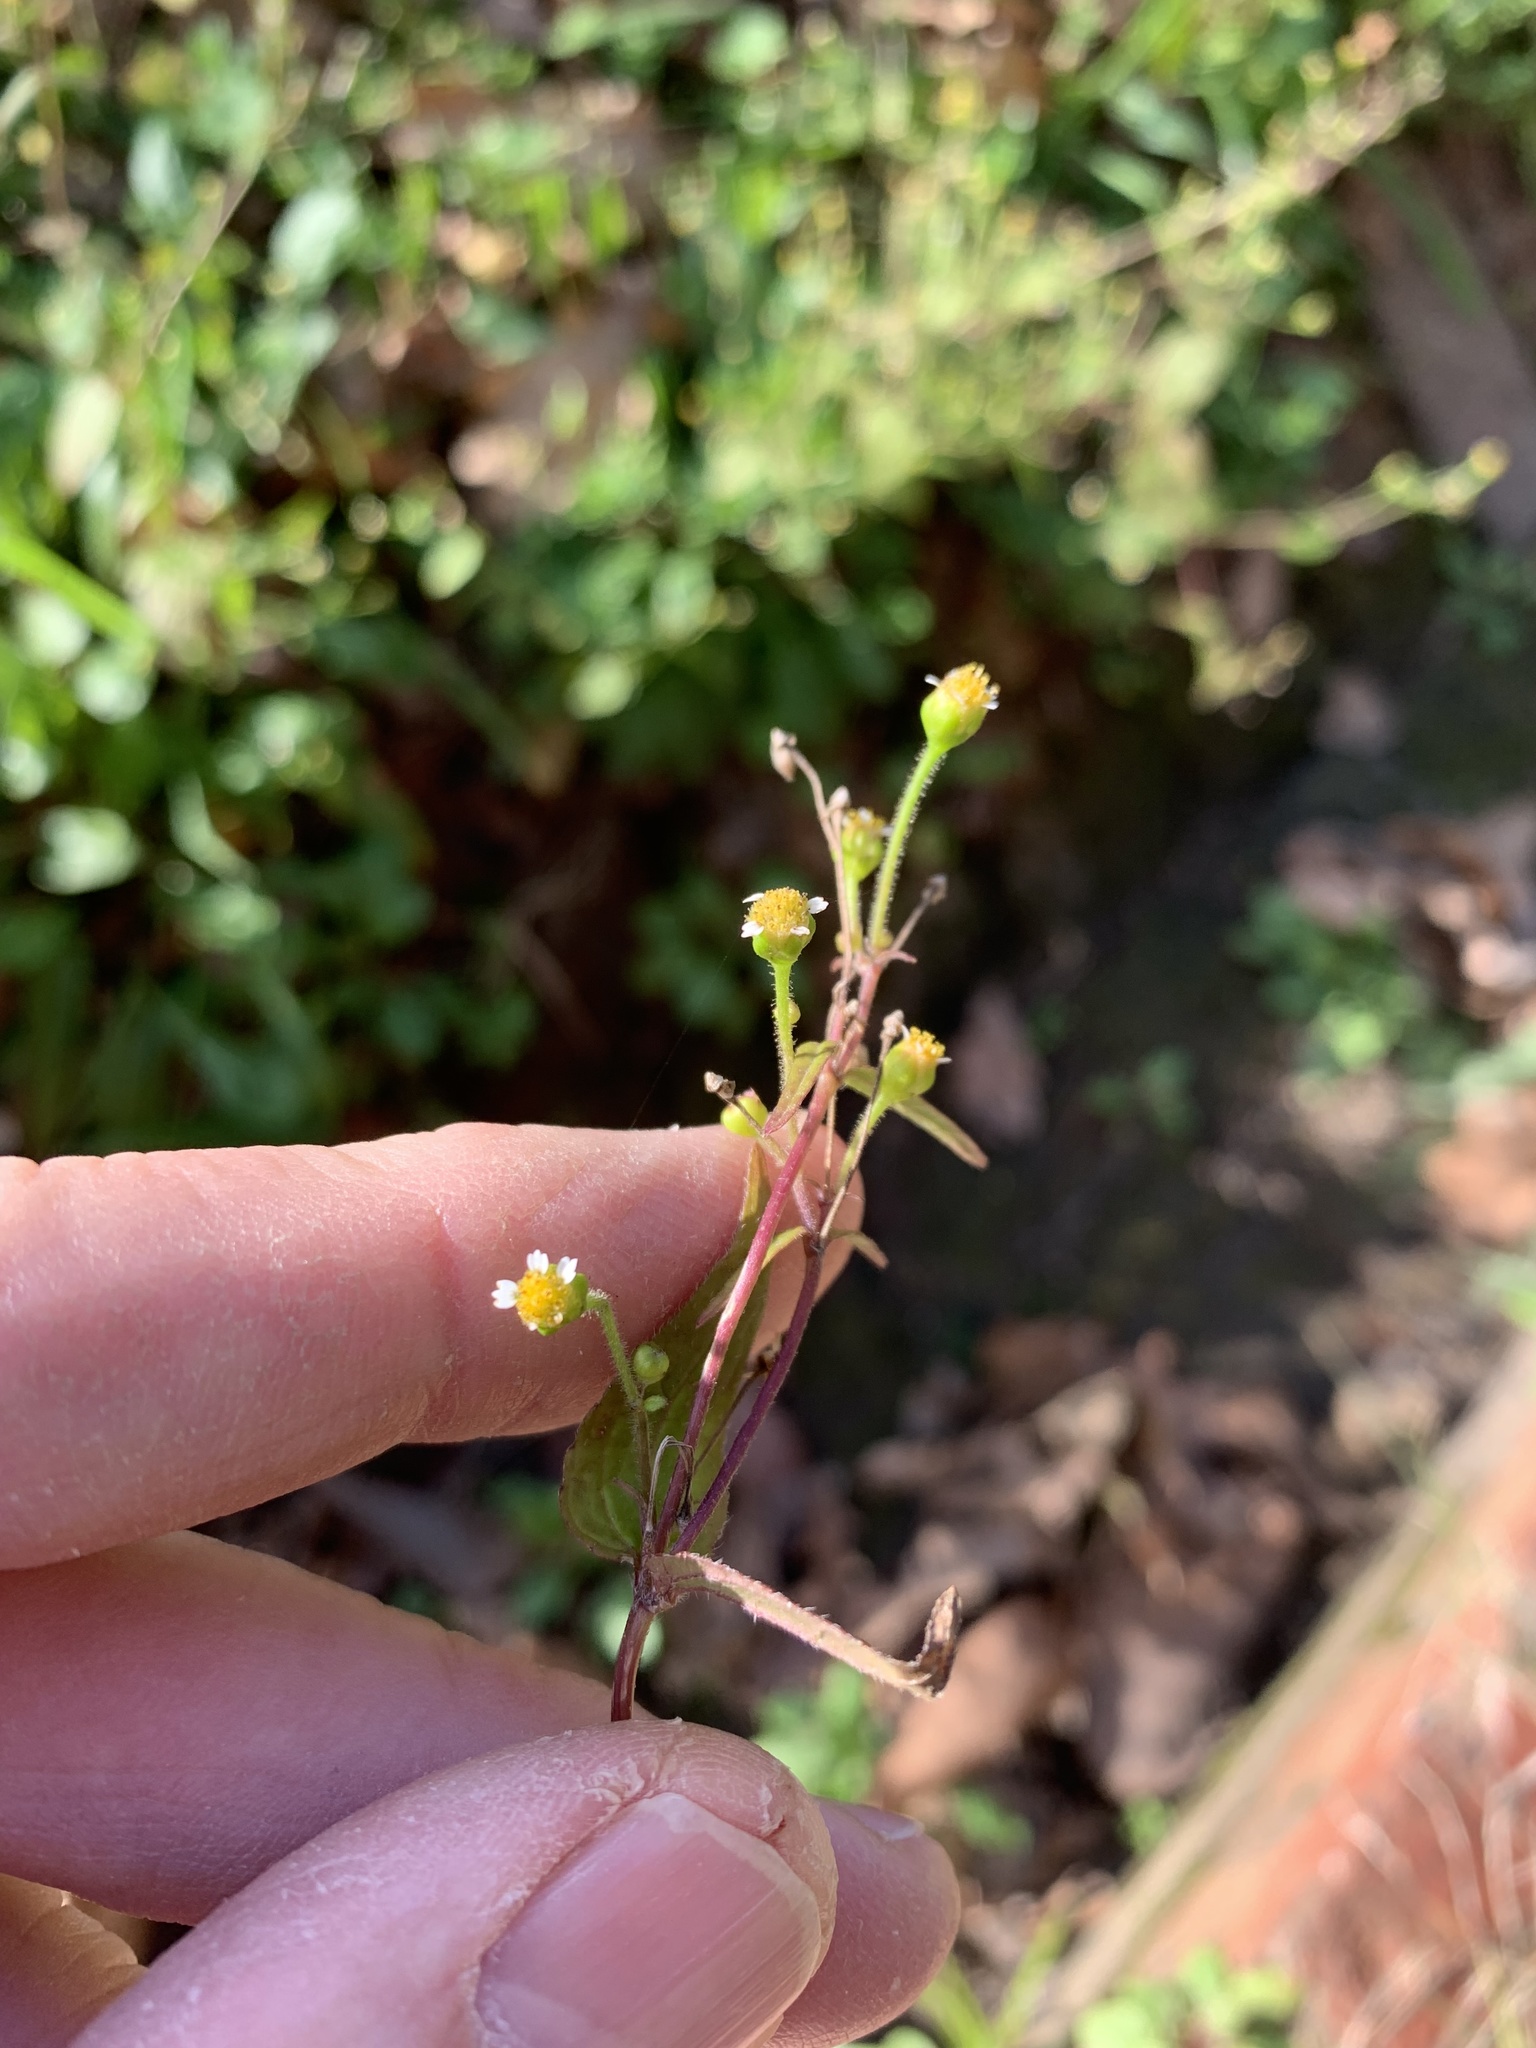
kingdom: Plantae
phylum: Tracheophyta
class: Magnoliopsida
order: Asterales
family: Asteraceae
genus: Galinsoga
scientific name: Galinsoga parviflora
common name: Gallant soldier
